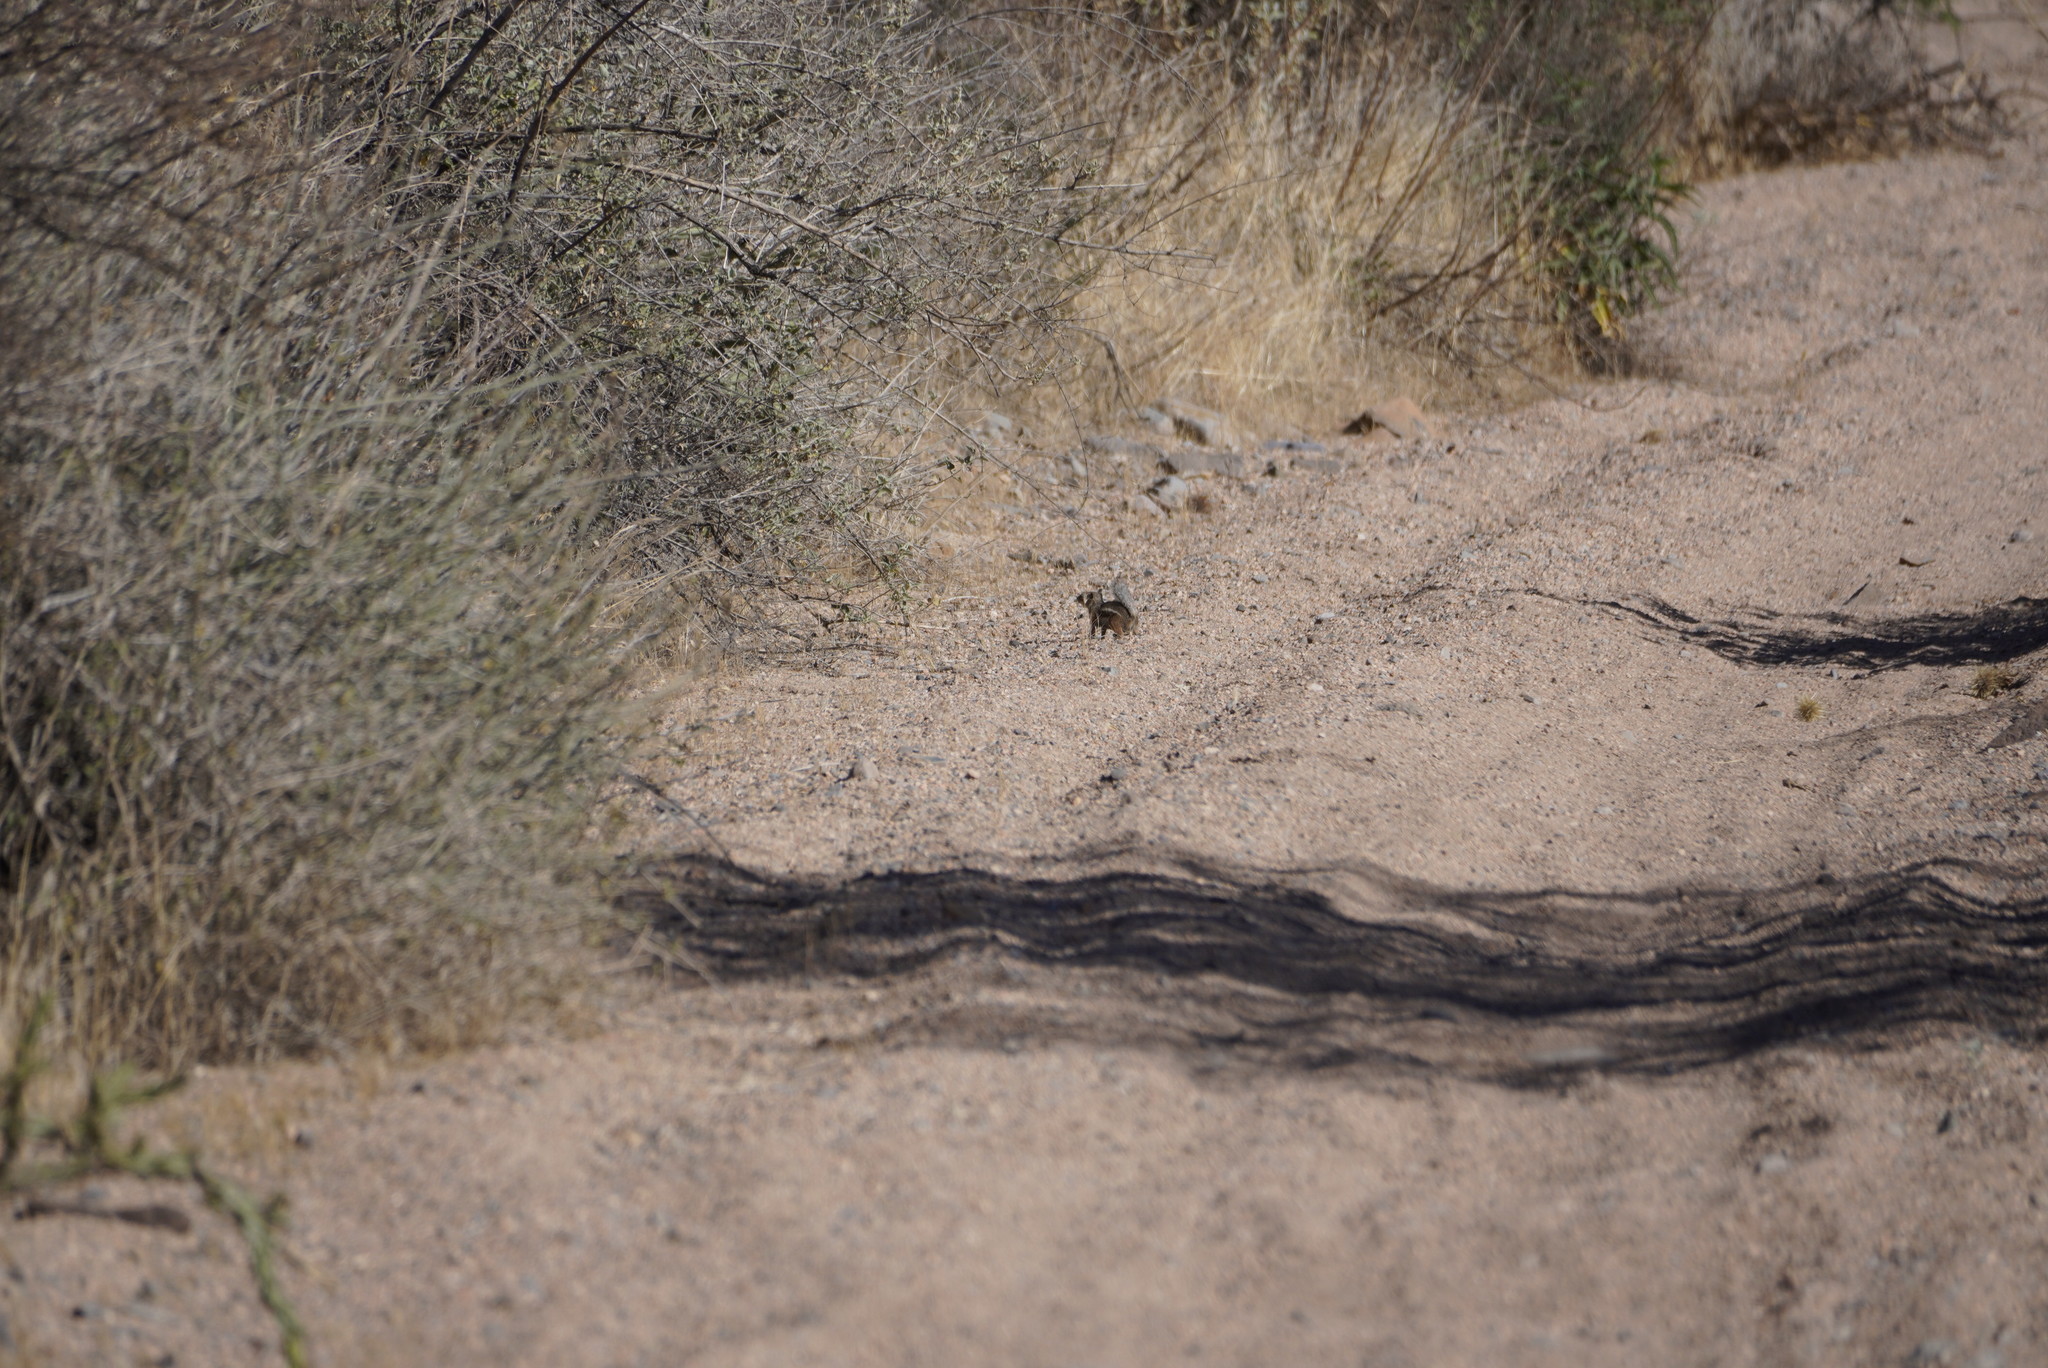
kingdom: Animalia
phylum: Chordata
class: Mammalia
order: Rodentia
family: Sciuridae
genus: Ammospermophilus
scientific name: Ammospermophilus harrisii
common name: Harris's antelope squirrel
